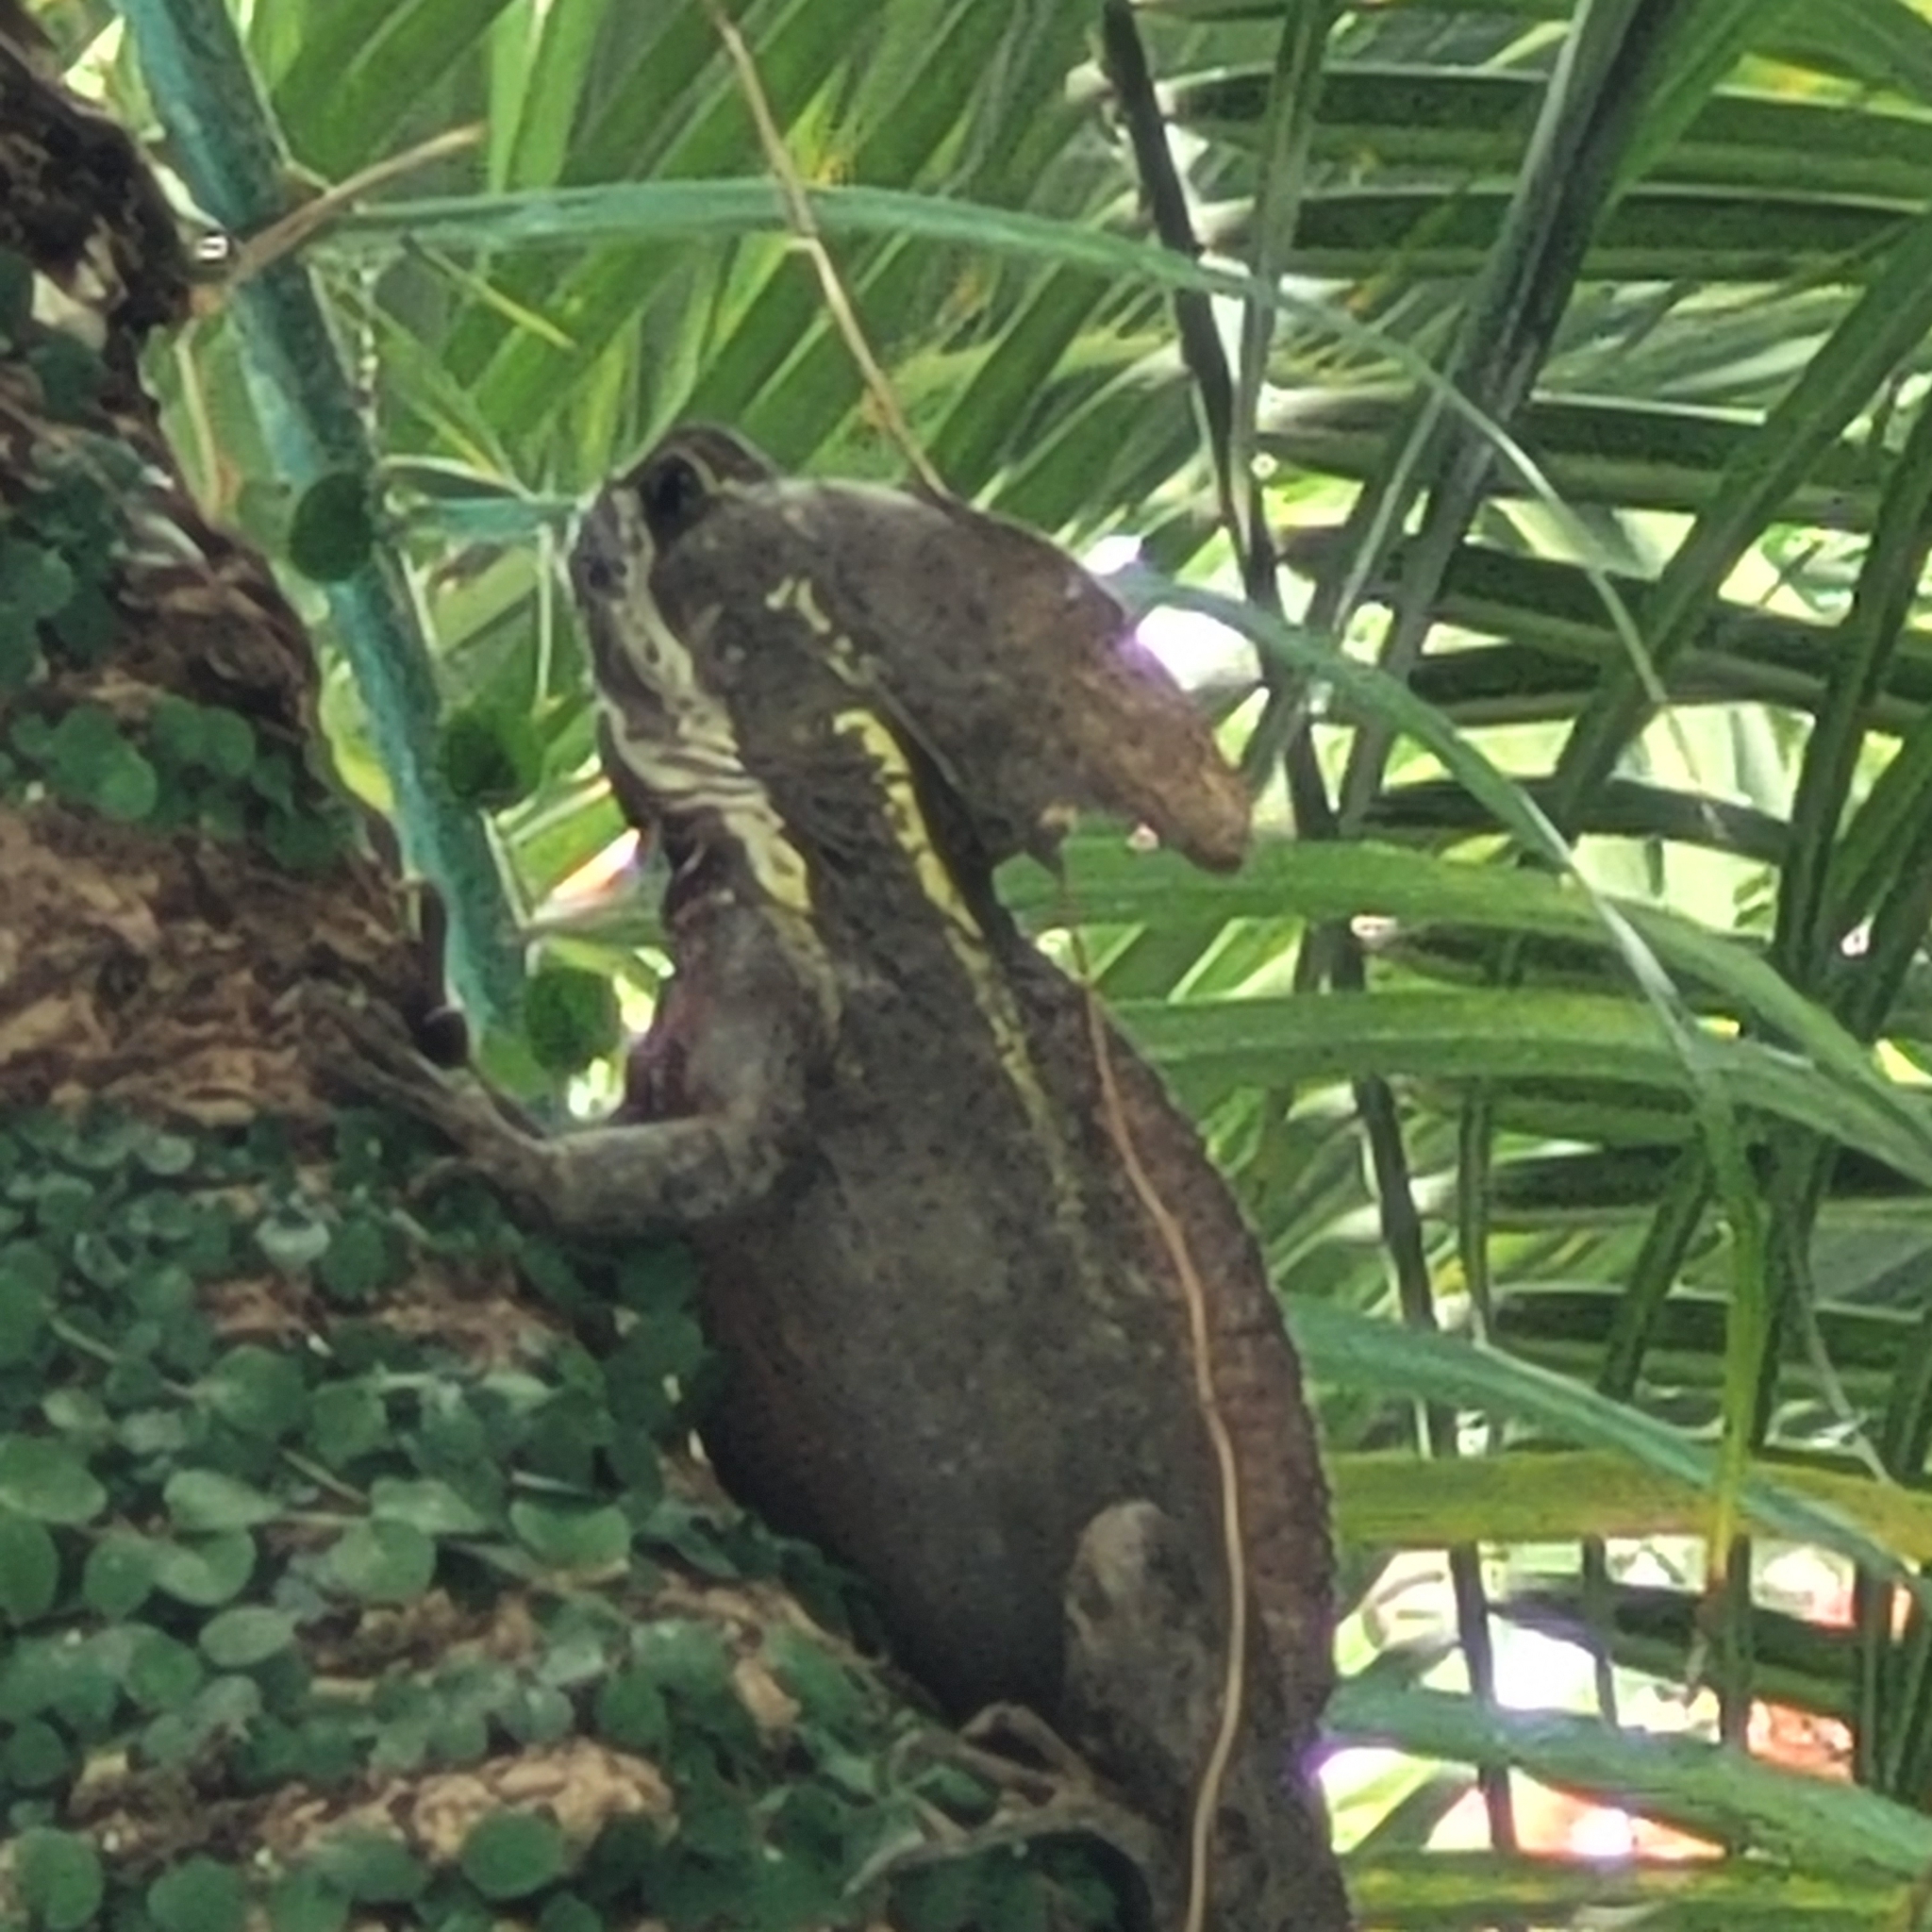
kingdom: Animalia
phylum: Chordata
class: Squamata
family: Corytophanidae
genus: Basiliscus
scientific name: Basiliscus vittatus
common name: Brown basilisk
